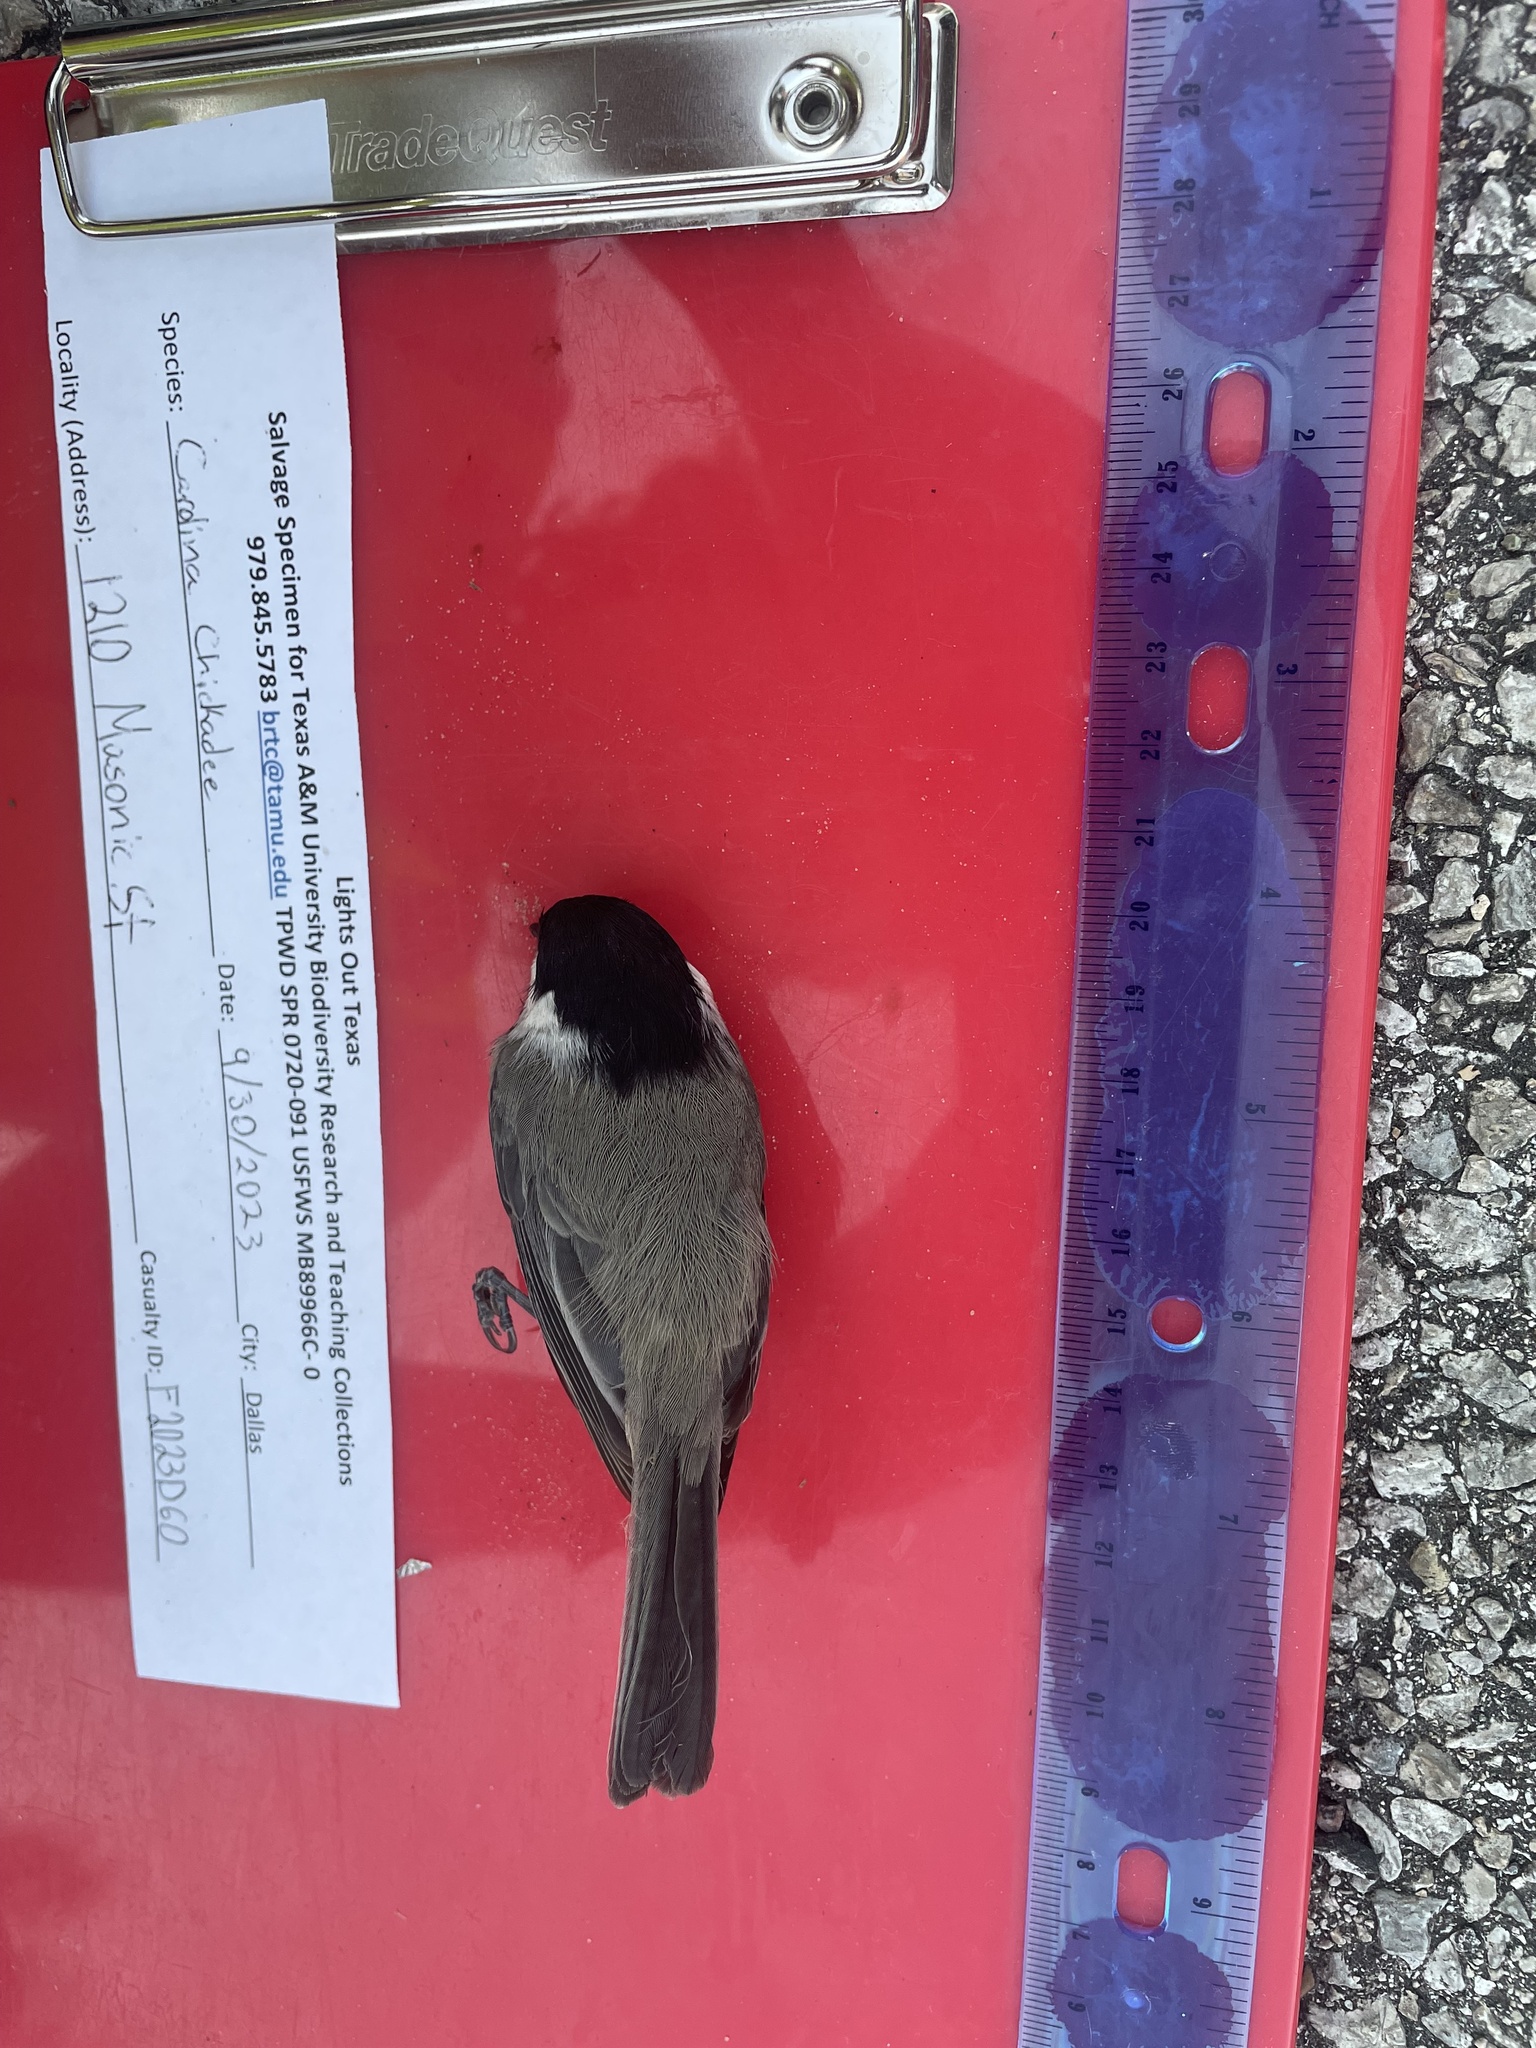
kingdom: Animalia
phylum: Chordata
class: Aves
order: Passeriformes
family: Paridae
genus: Poecile
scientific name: Poecile carolinensis
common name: Carolina chickadee
